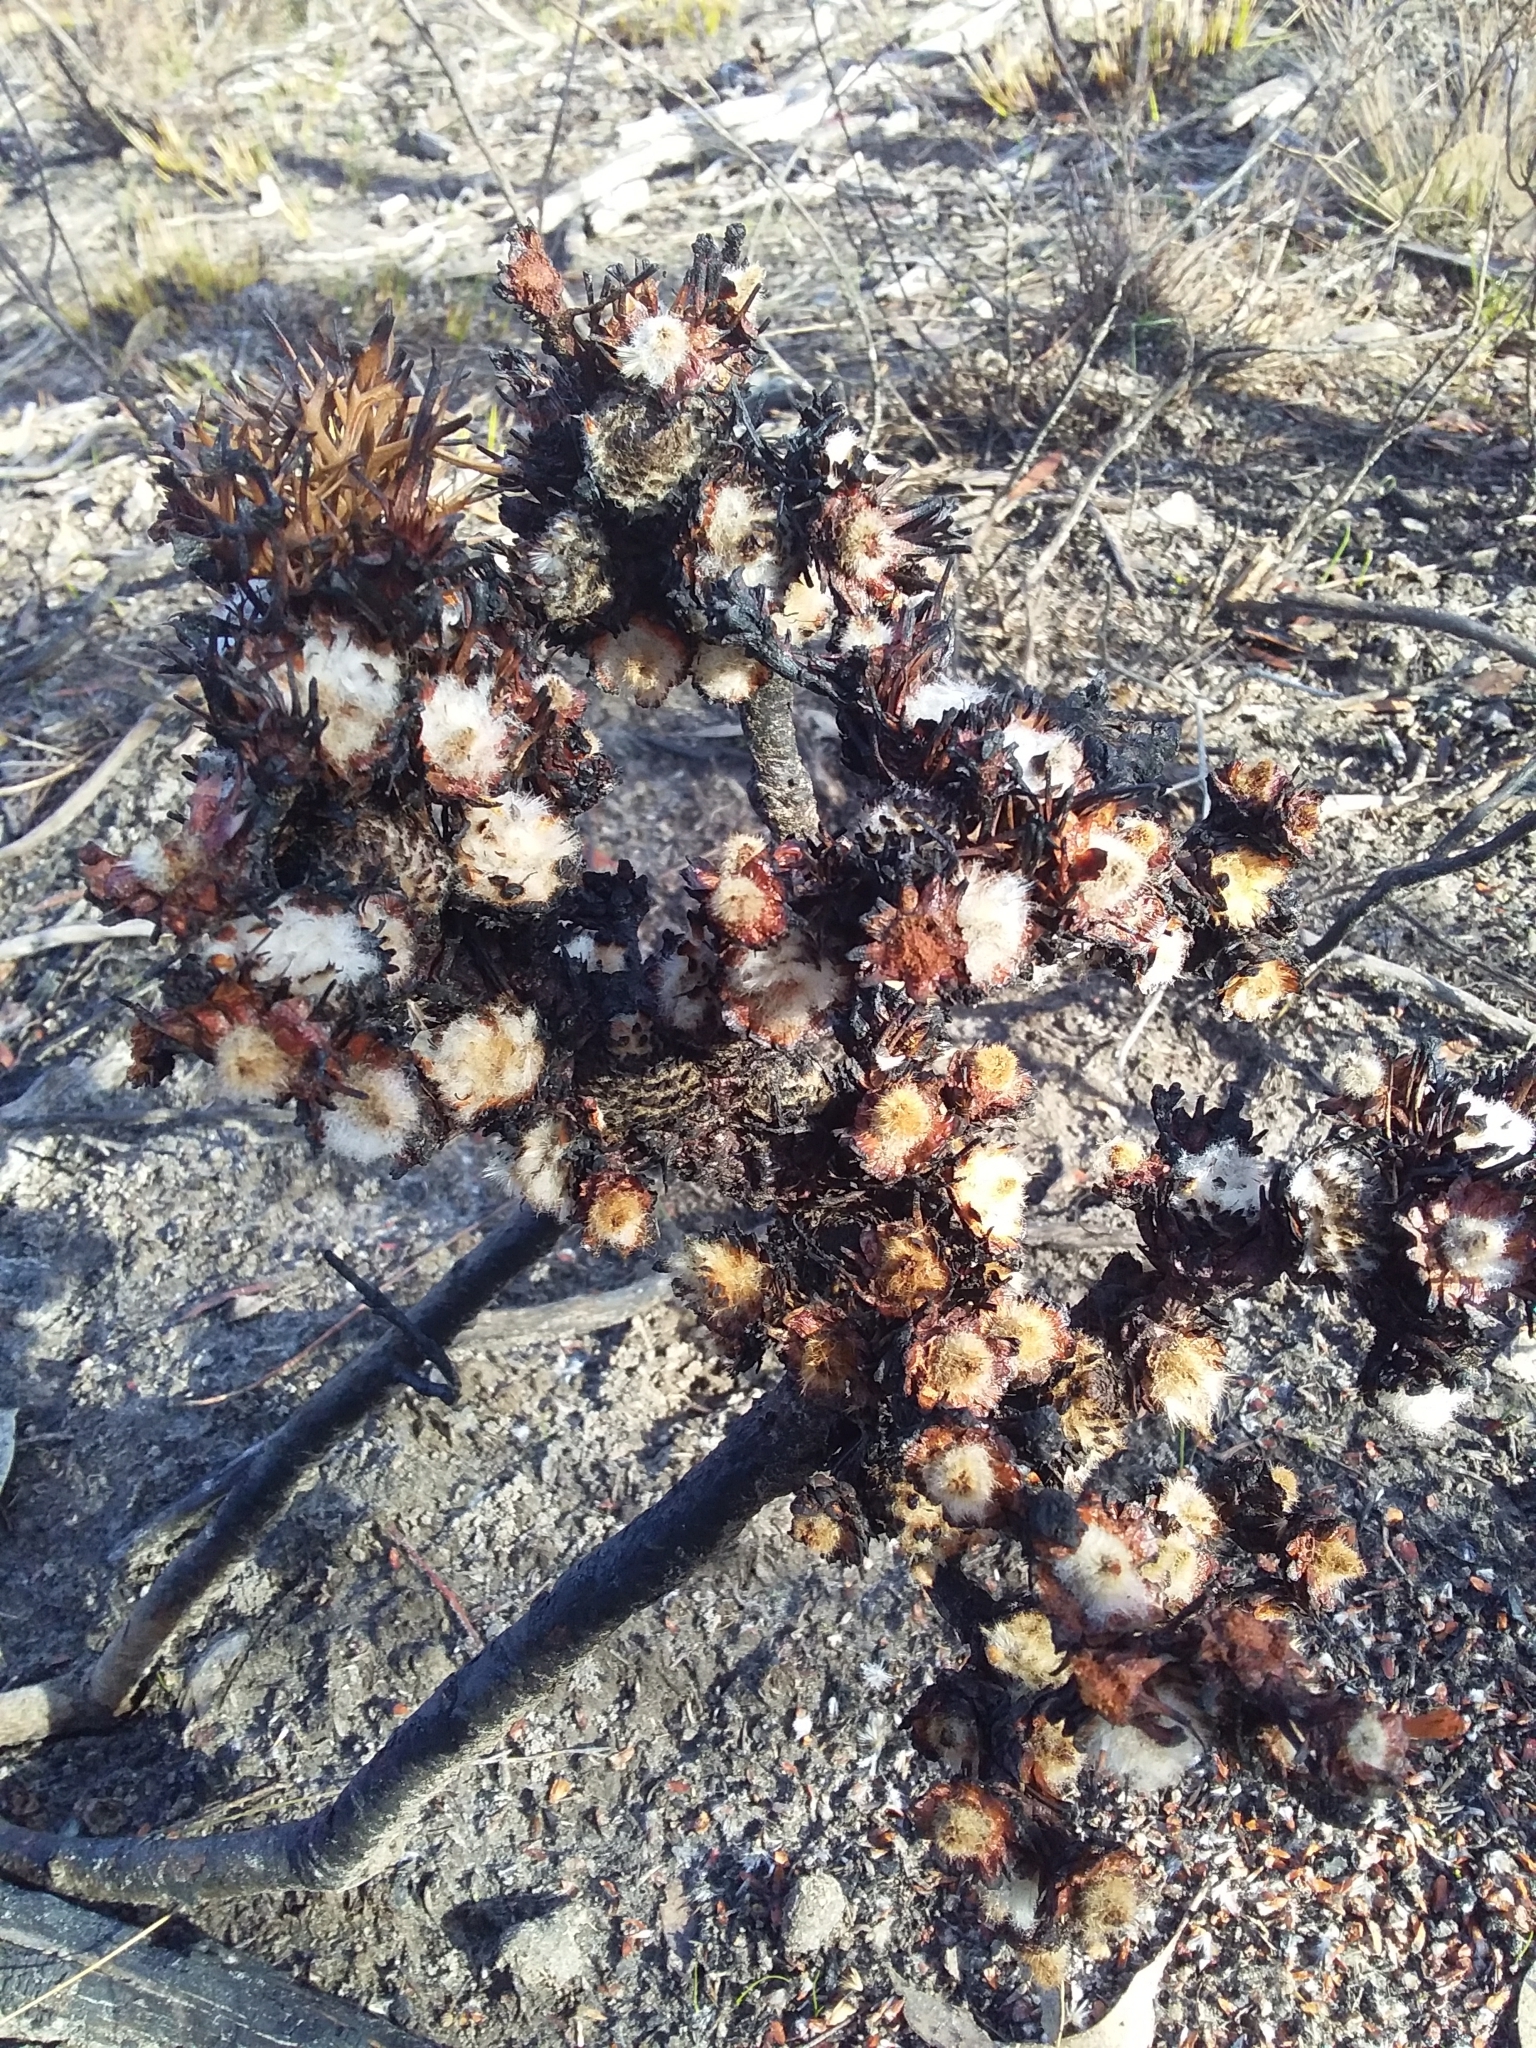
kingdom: Plantae
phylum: Tracheophyta
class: Magnoliopsida
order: Proteales
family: Proteaceae
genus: Isopogon
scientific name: Isopogon ceratophyllus
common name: Horny cone-bush
